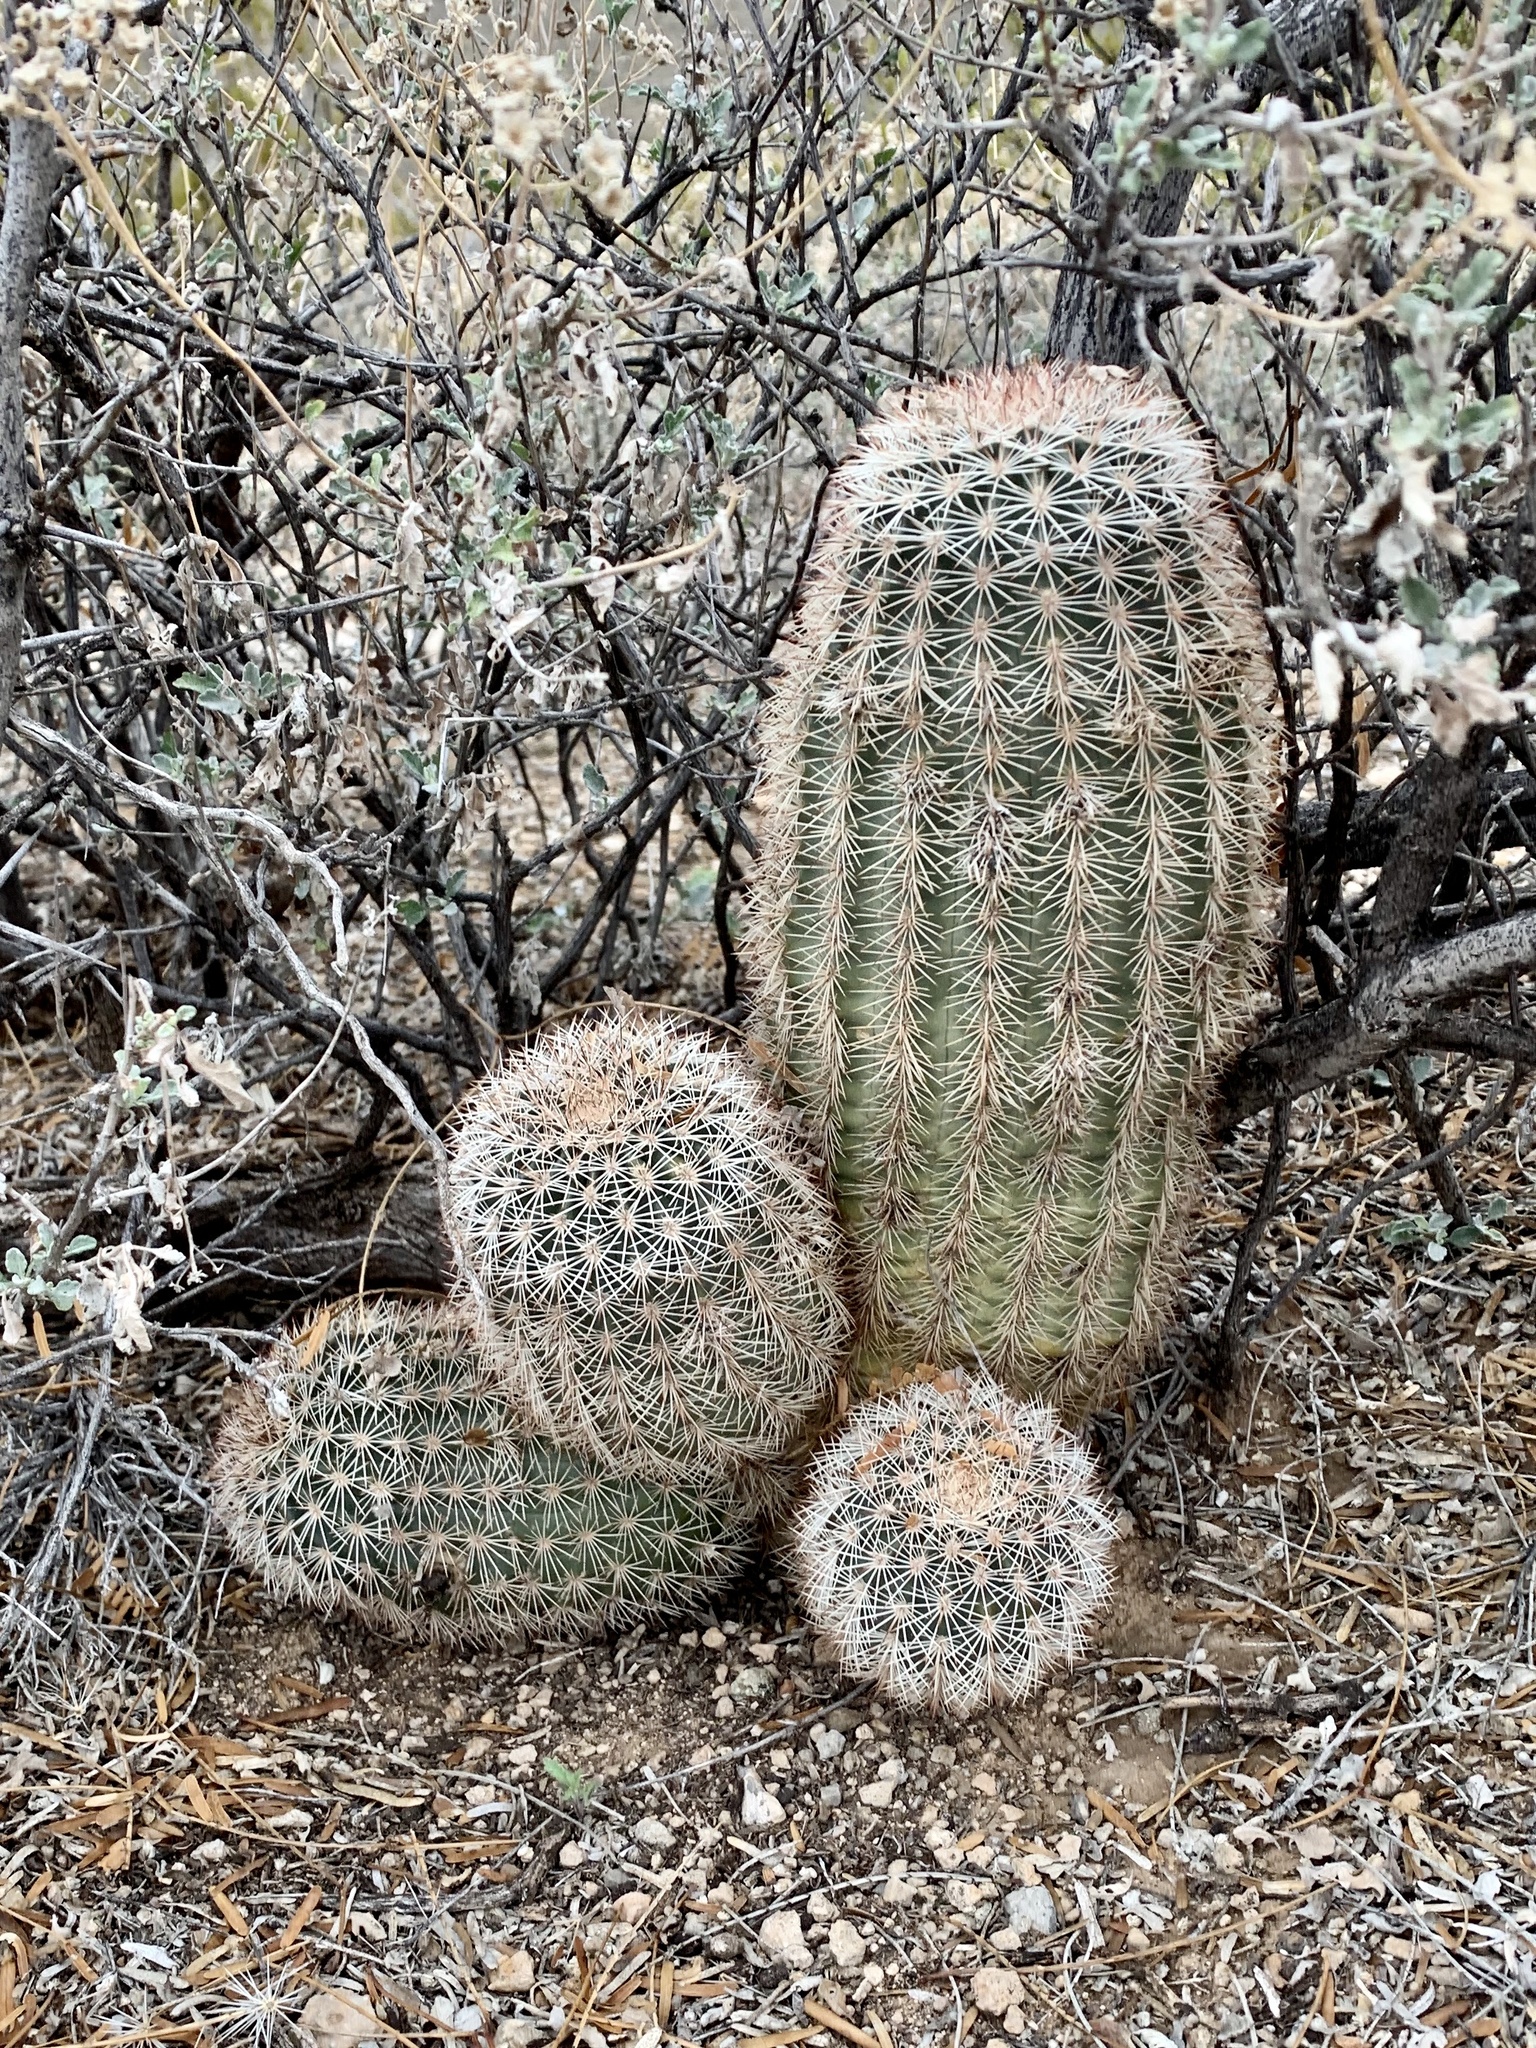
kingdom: Plantae
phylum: Tracheophyta
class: Magnoliopsida
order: Caryophyllales
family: Cactaceae
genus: Echinocereus
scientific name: Echinocereus dasyacanthus
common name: Spiny hedgehog cactus
